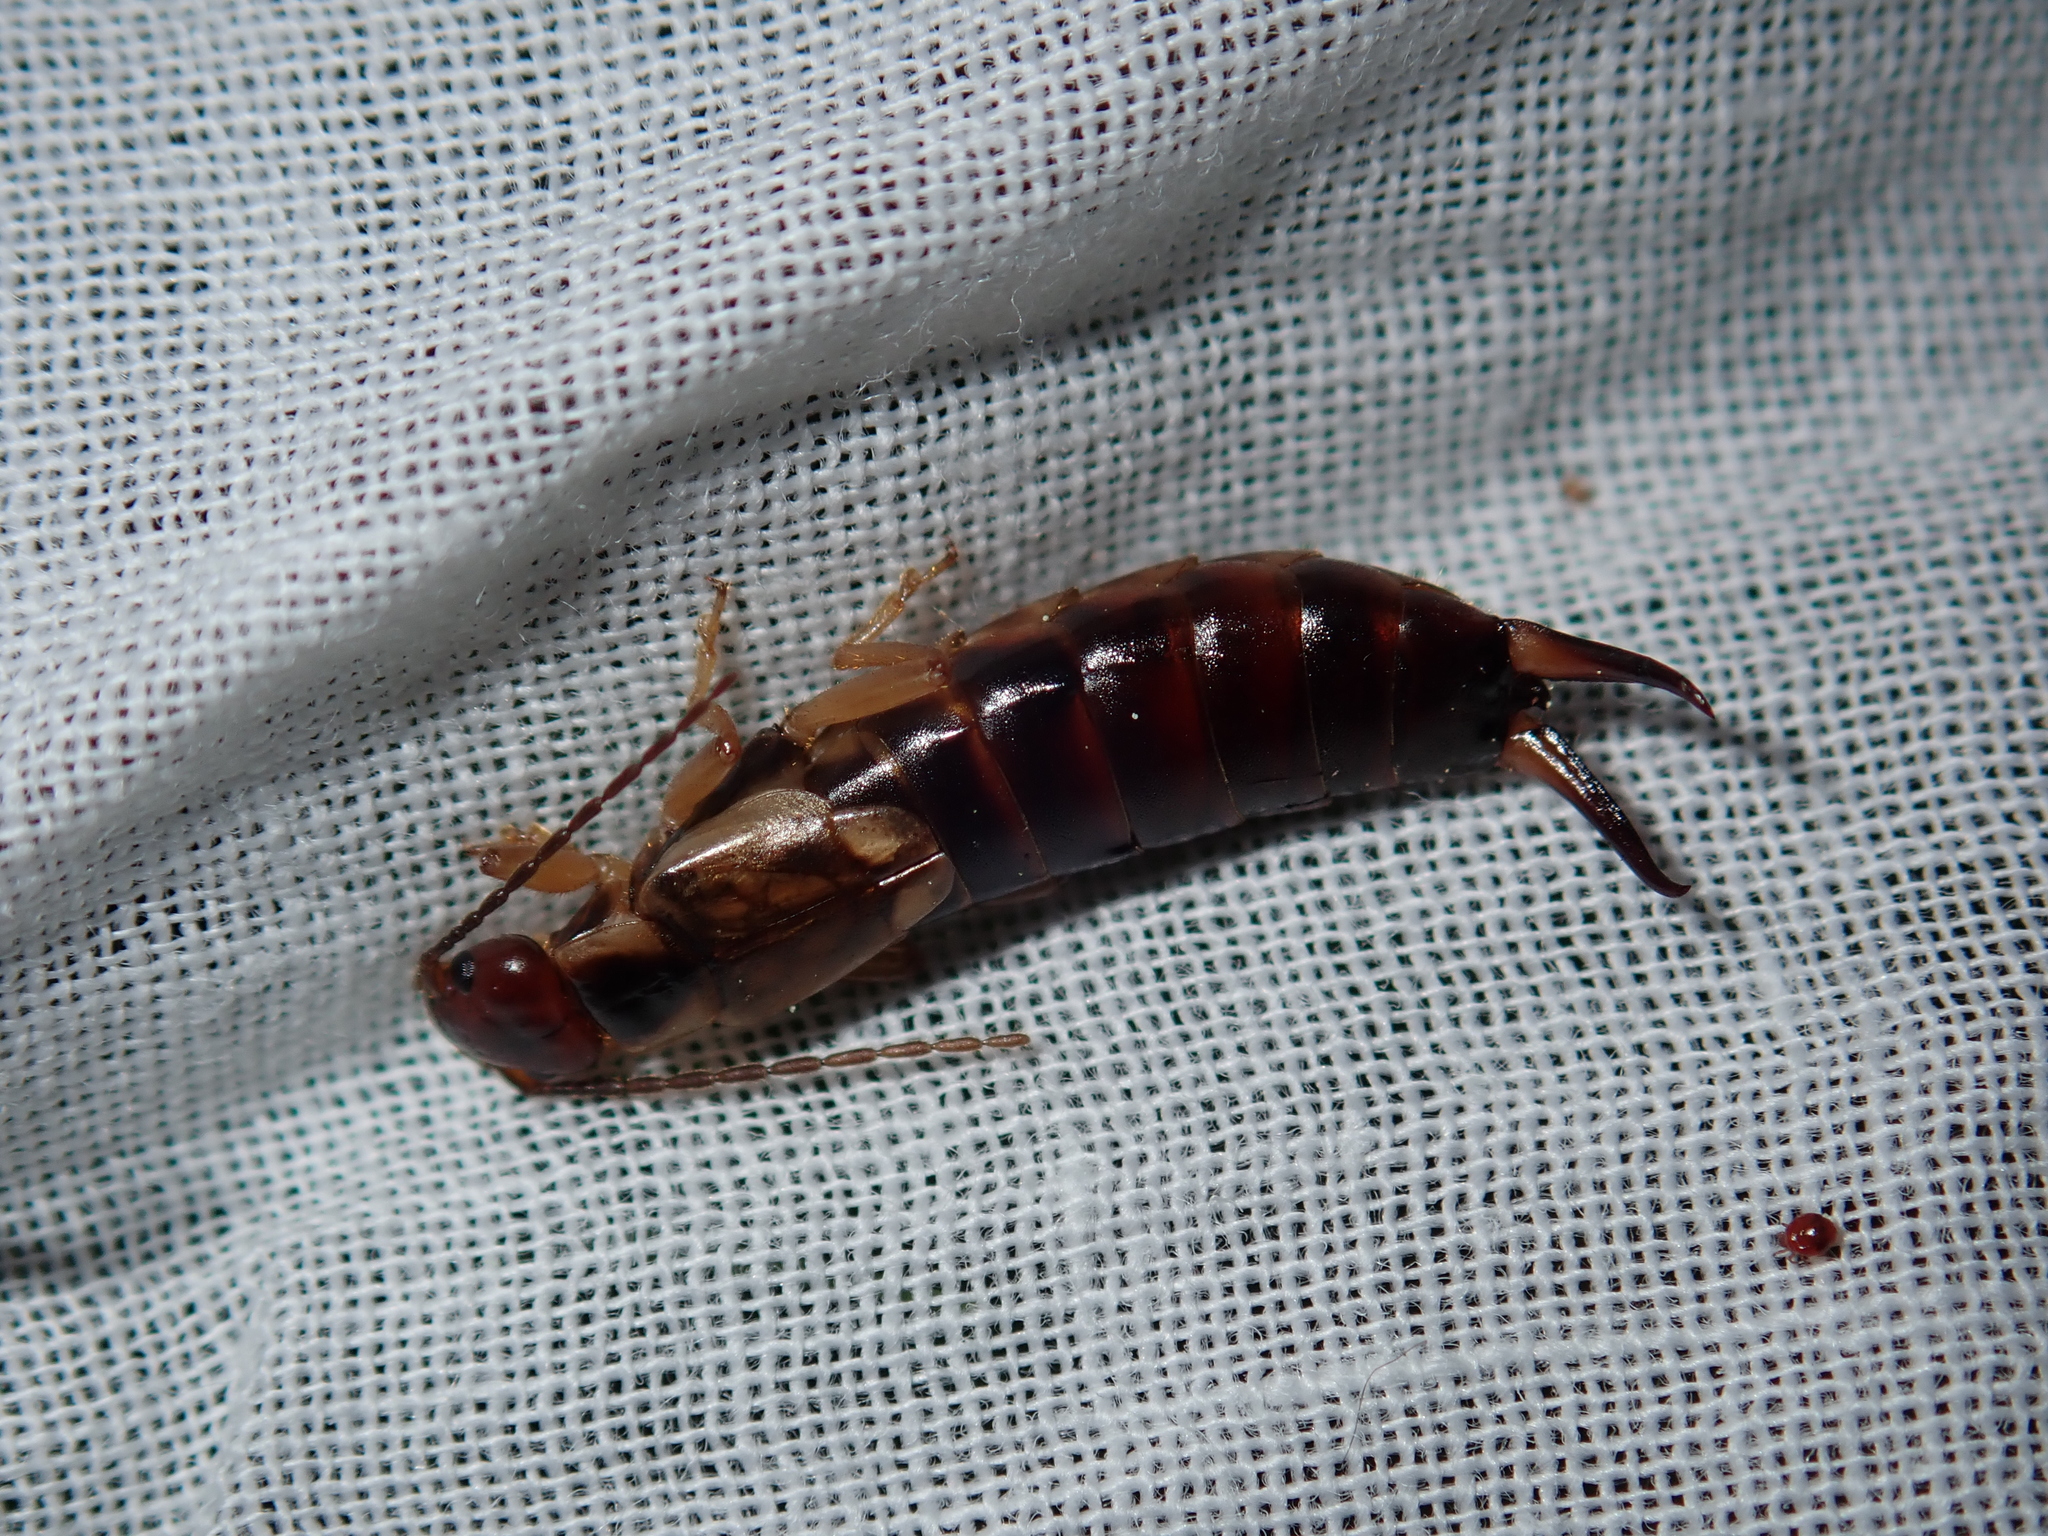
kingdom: Animalia
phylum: Arthropoda
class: Insecta
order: Dermaptera
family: Forficulidae
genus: Forficula
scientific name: Forficula
